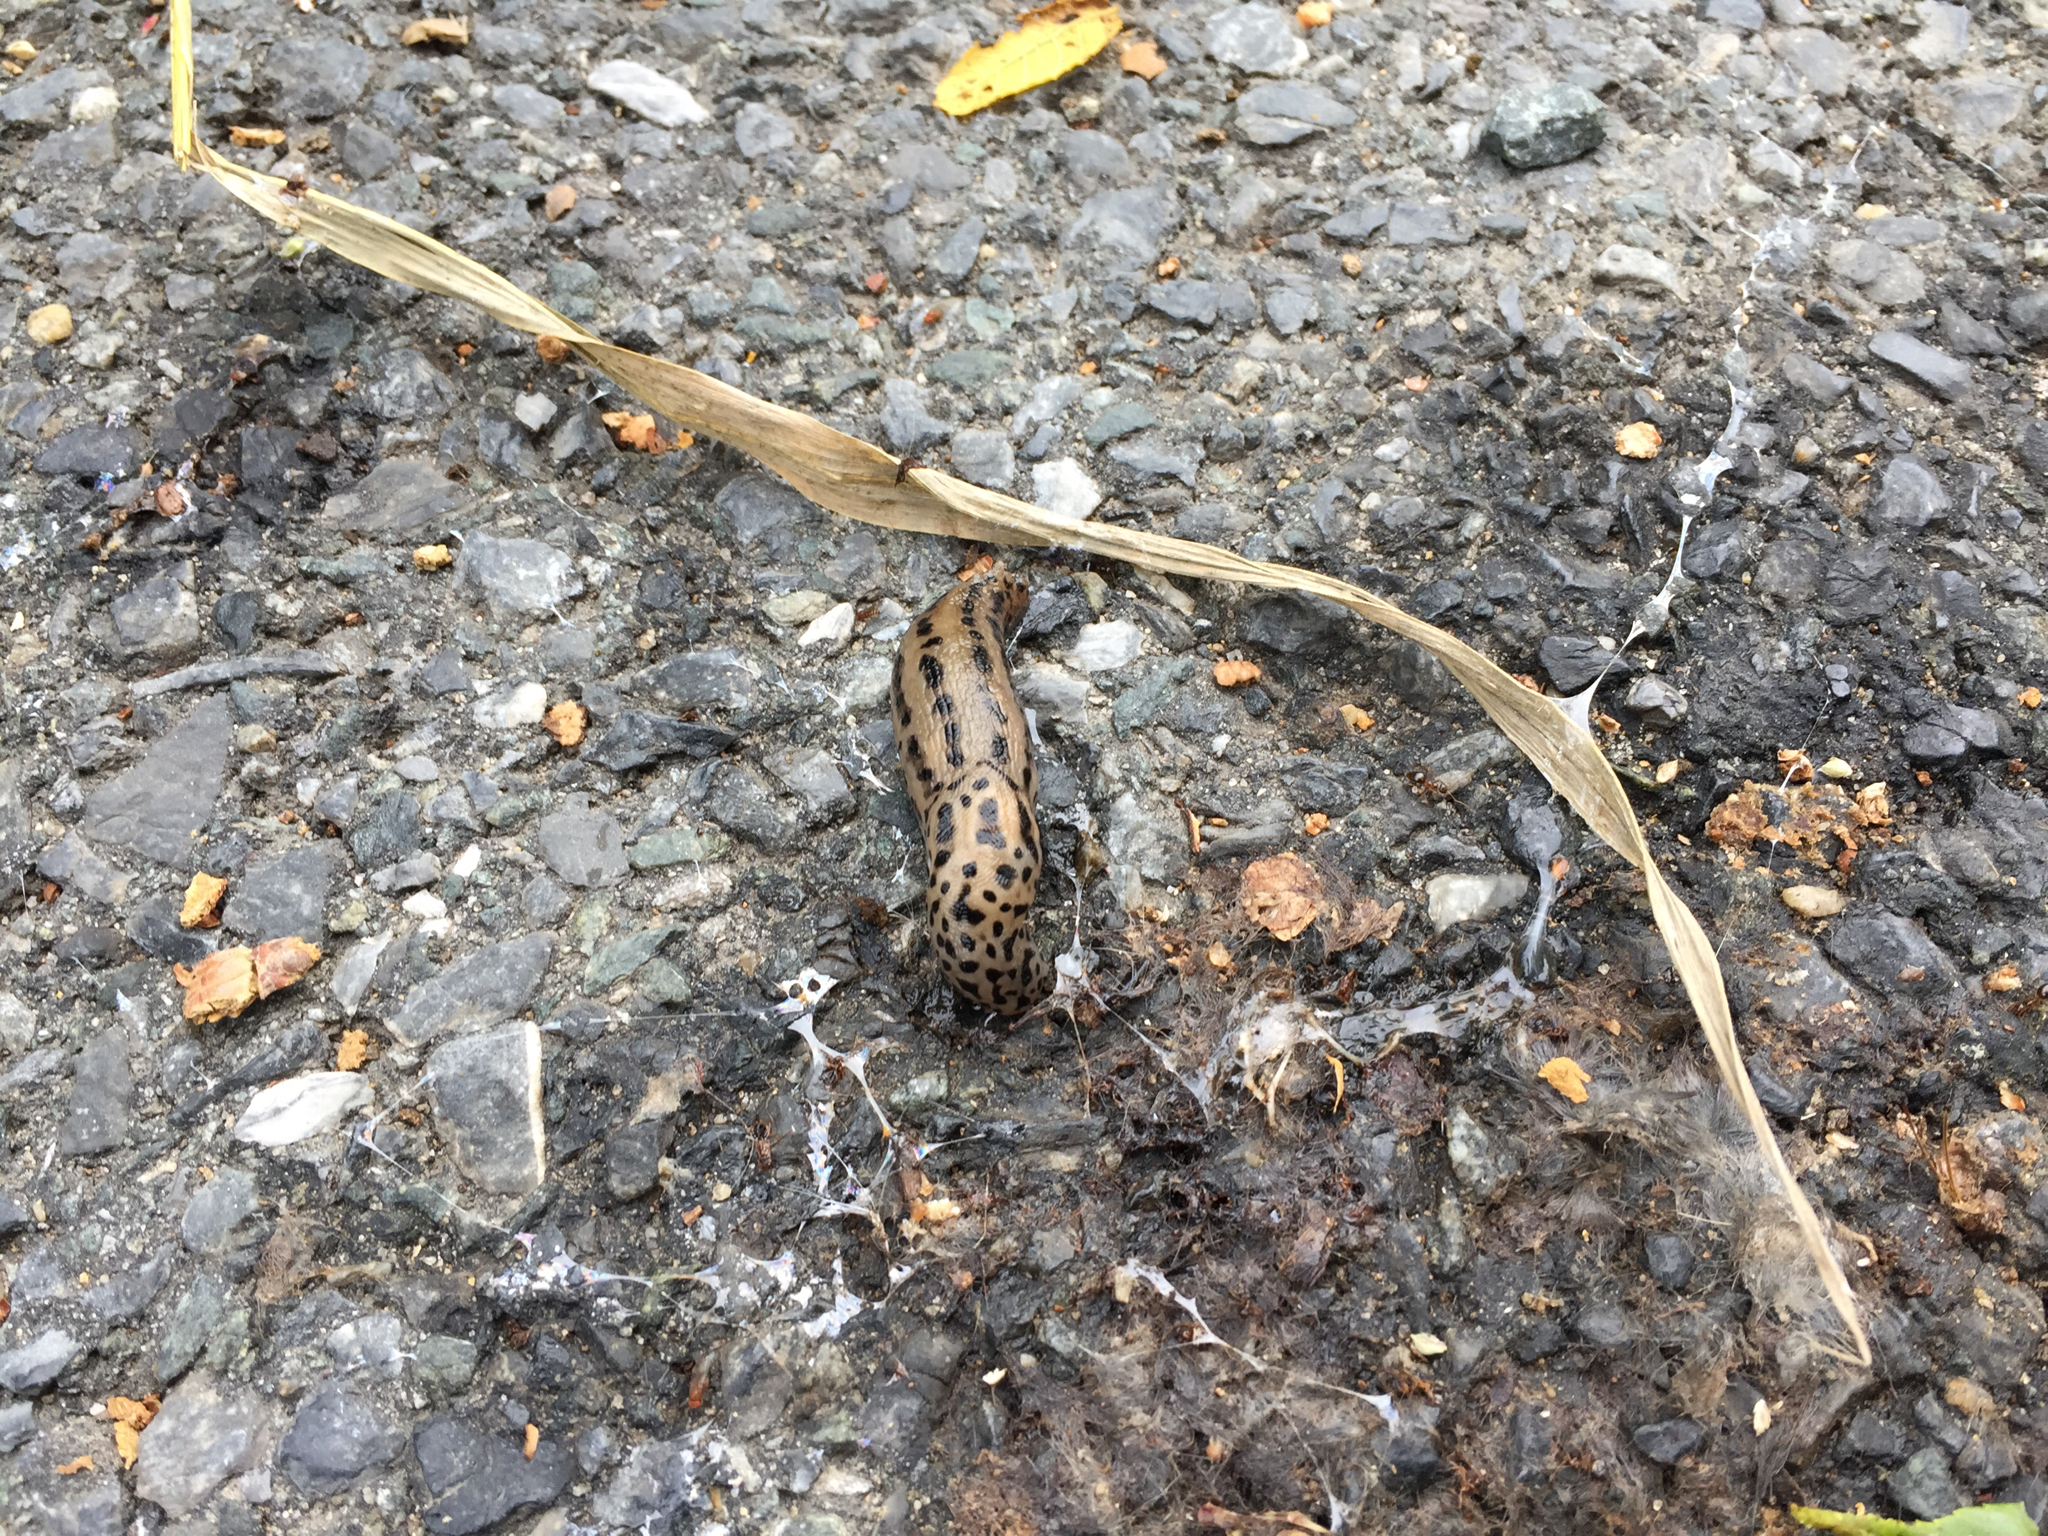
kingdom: Animalia
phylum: Mollusca
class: Gastropoda
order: Stylommatophora
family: Limacidae
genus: Limax
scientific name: Limax maximus
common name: Great grey slug
